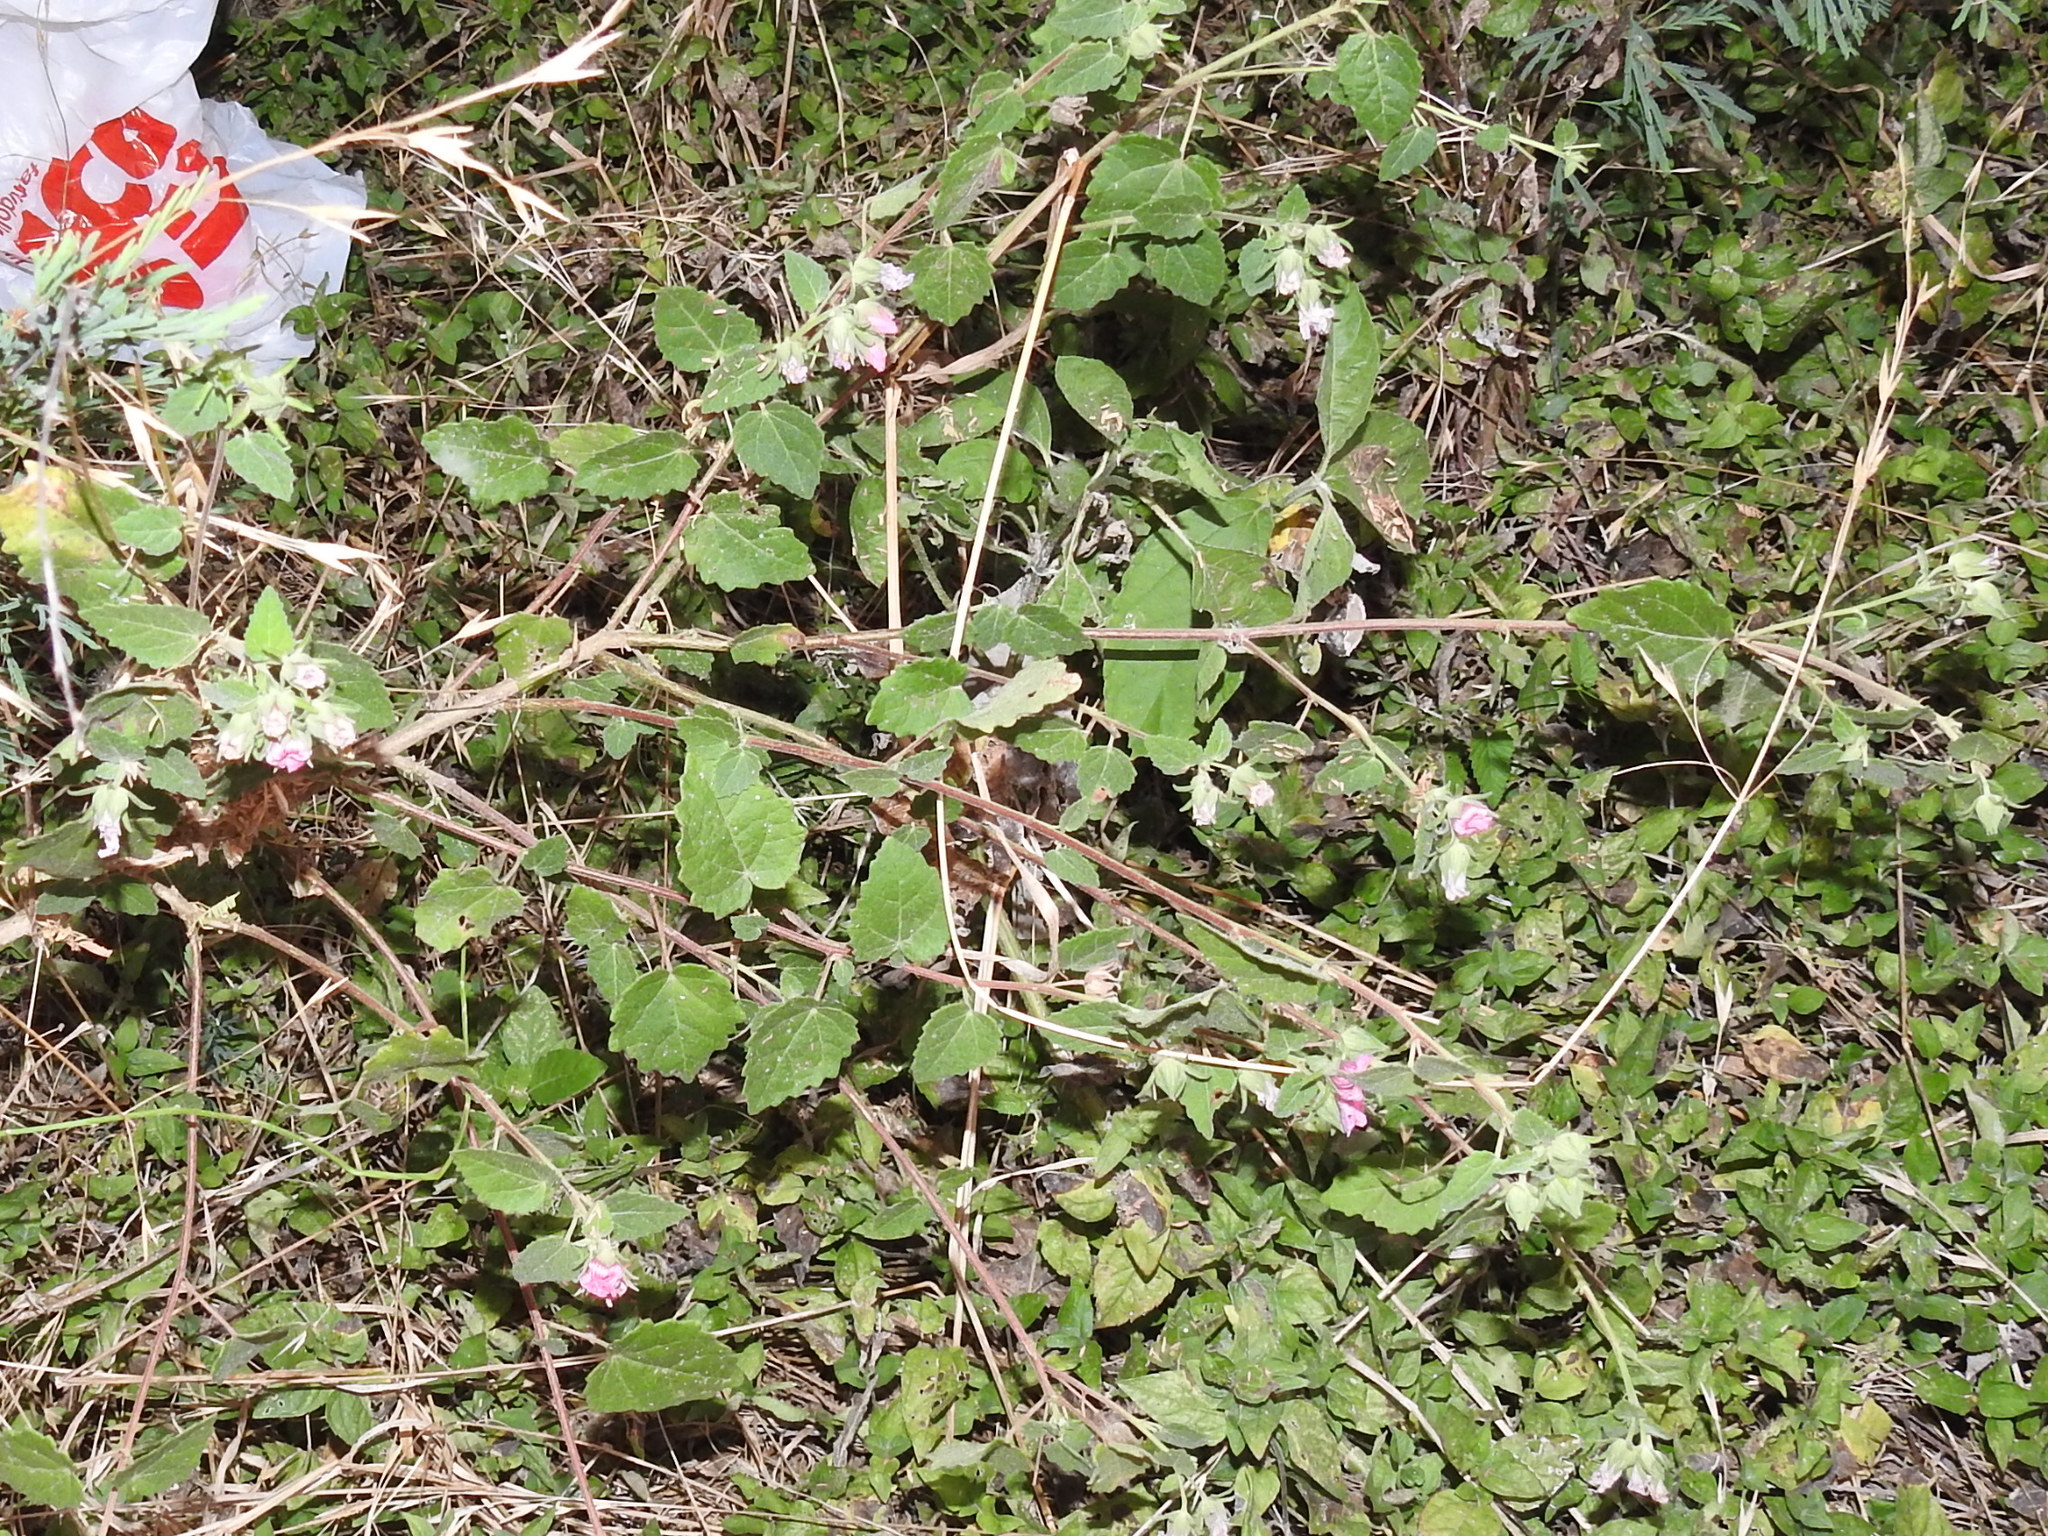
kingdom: Plantae
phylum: Tracheophyta
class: Magnoliopsida
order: Malvales
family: Malvaceae
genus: Pavonia
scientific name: Pavonia lasiopetala
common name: Texas swamp-mallow
